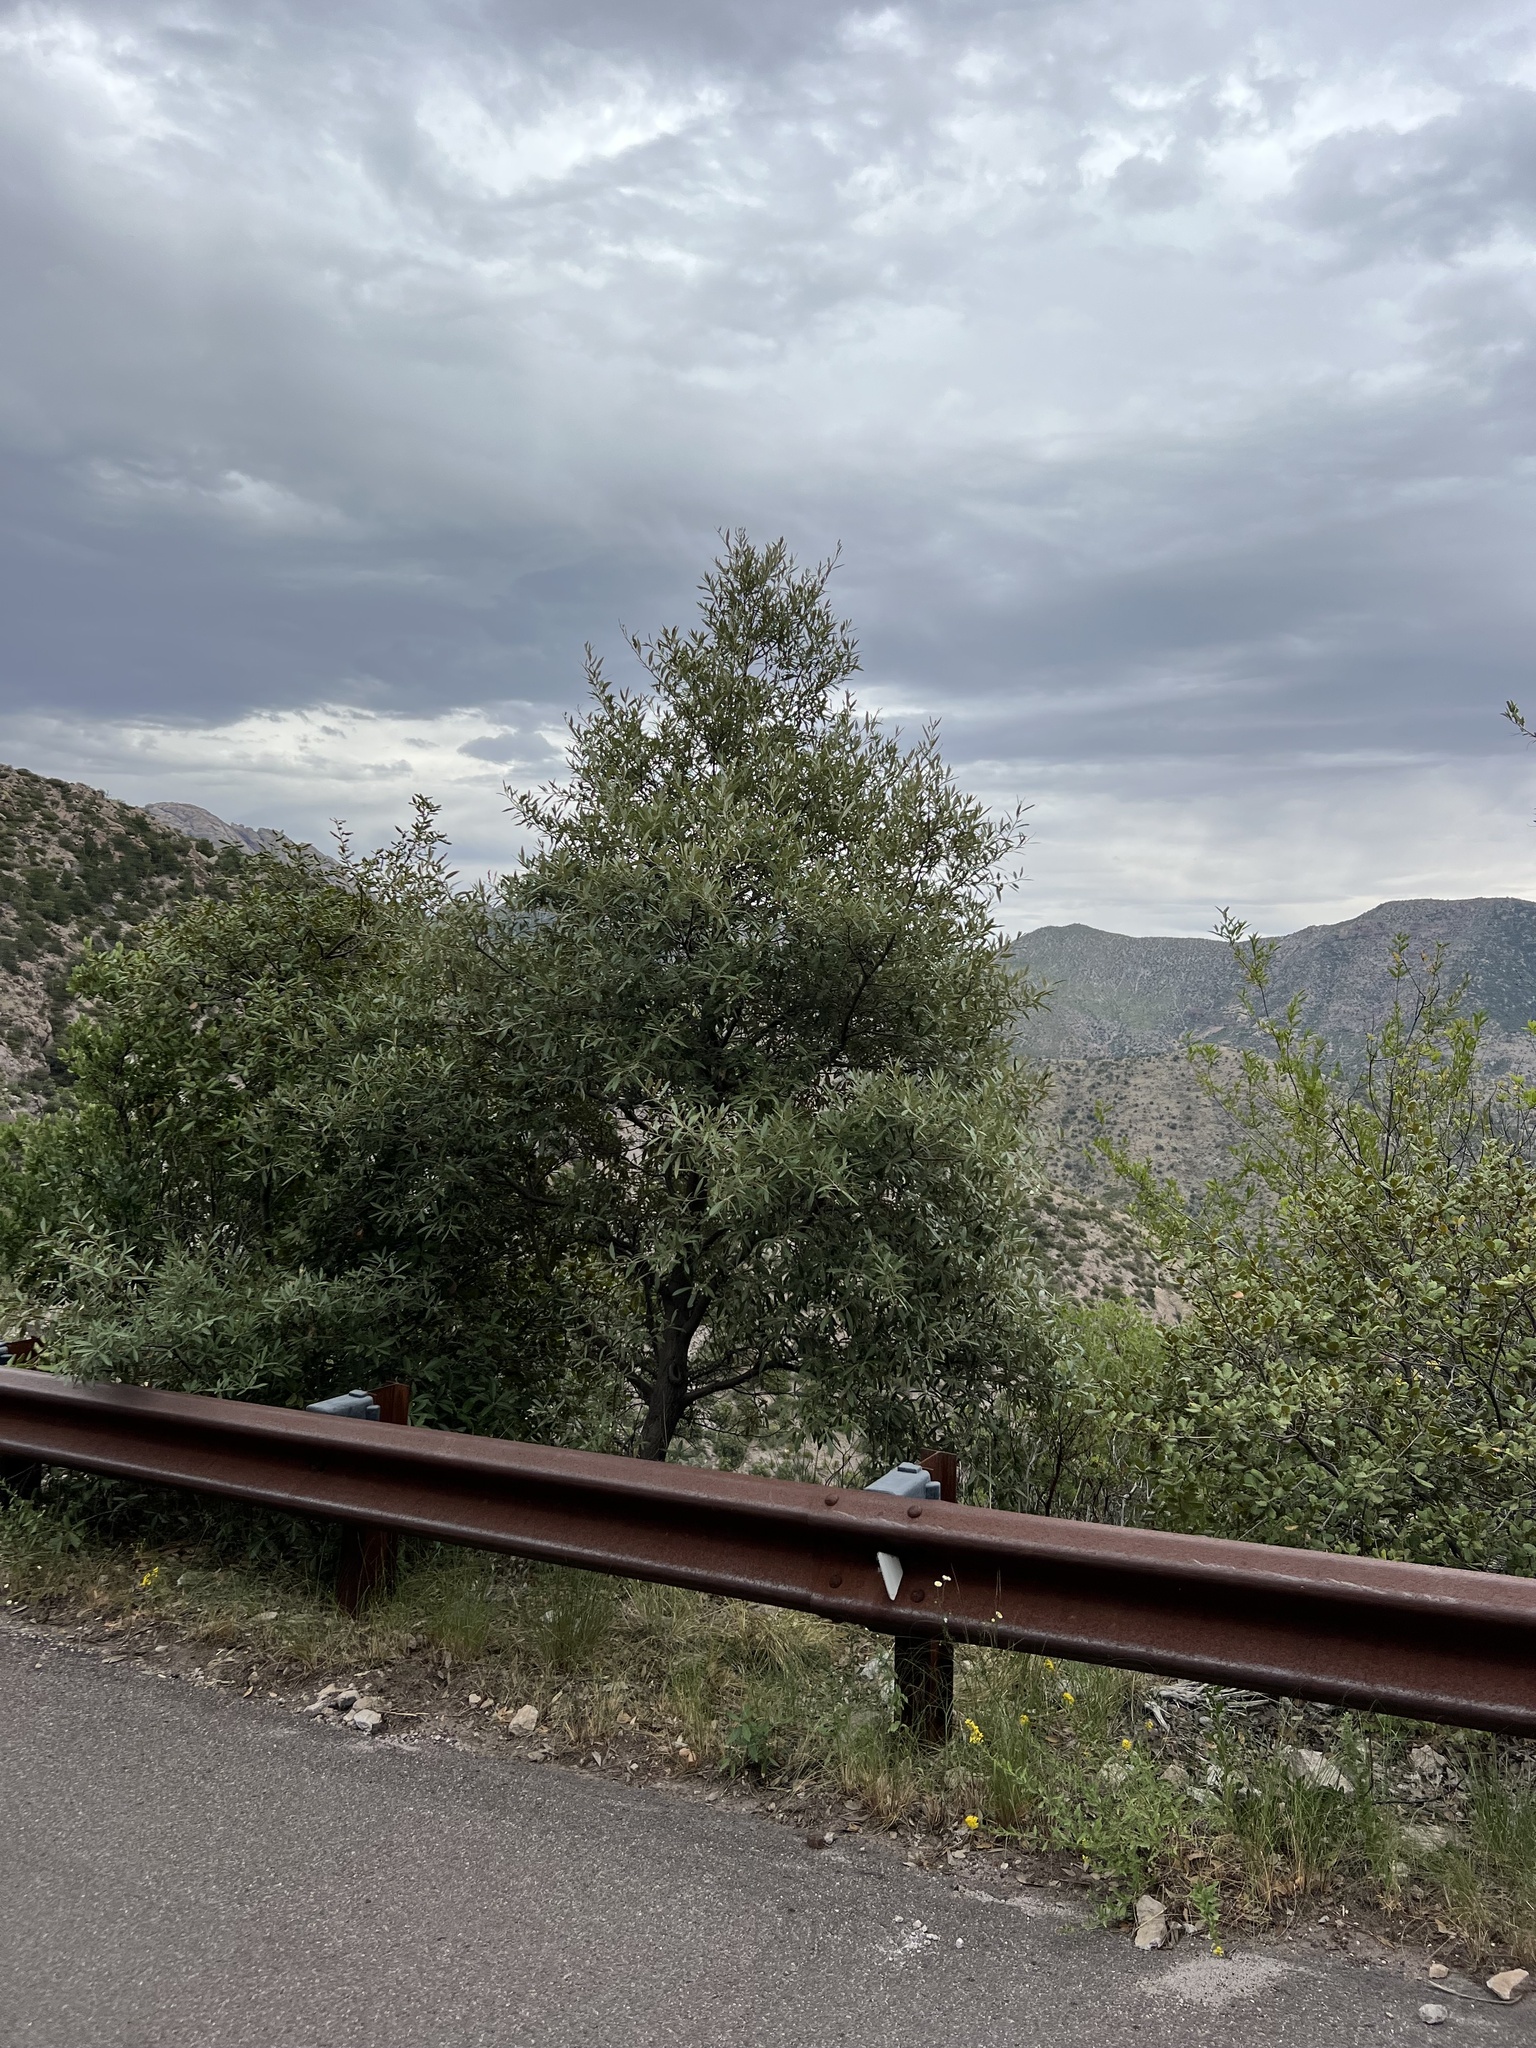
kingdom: Plantae
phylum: Tracheophyta
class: Magnoliopsida
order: Fagales
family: Fagaceae
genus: Quercus
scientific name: Quercus hypoleucoides
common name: Silverleaf oak
